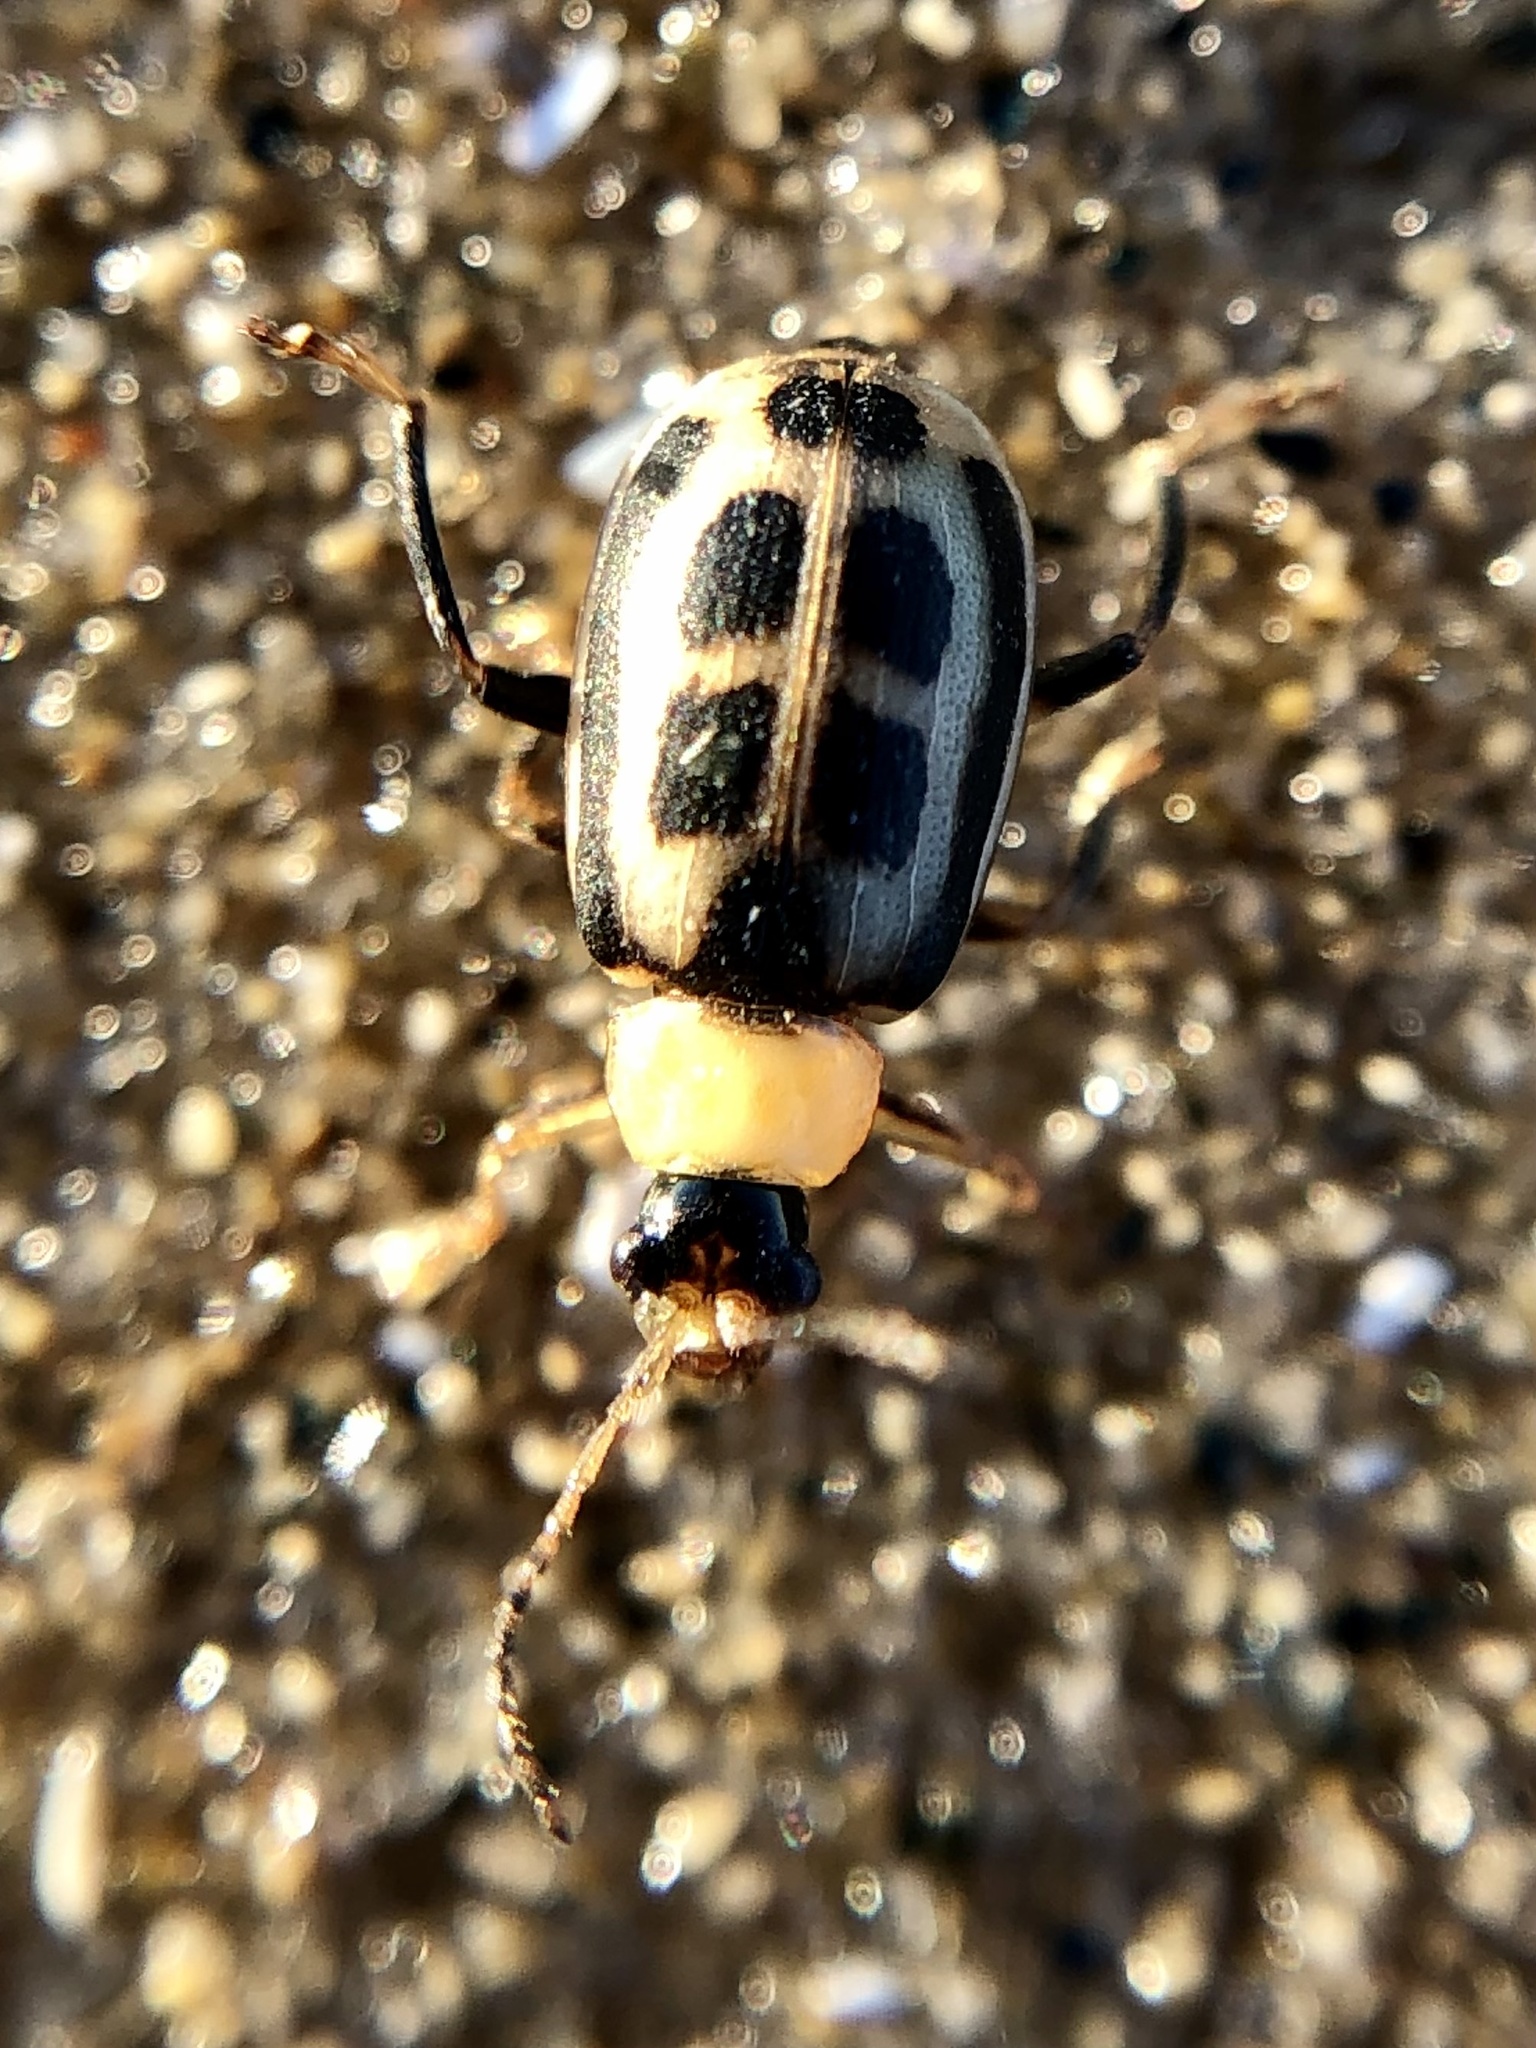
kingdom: Animalia
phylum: Arthropoda
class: Insecta
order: Coleoptera
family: Chrysomelidae
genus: Cerotoma
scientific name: Cerotoma trifurcata
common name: Bean leaf beetle
